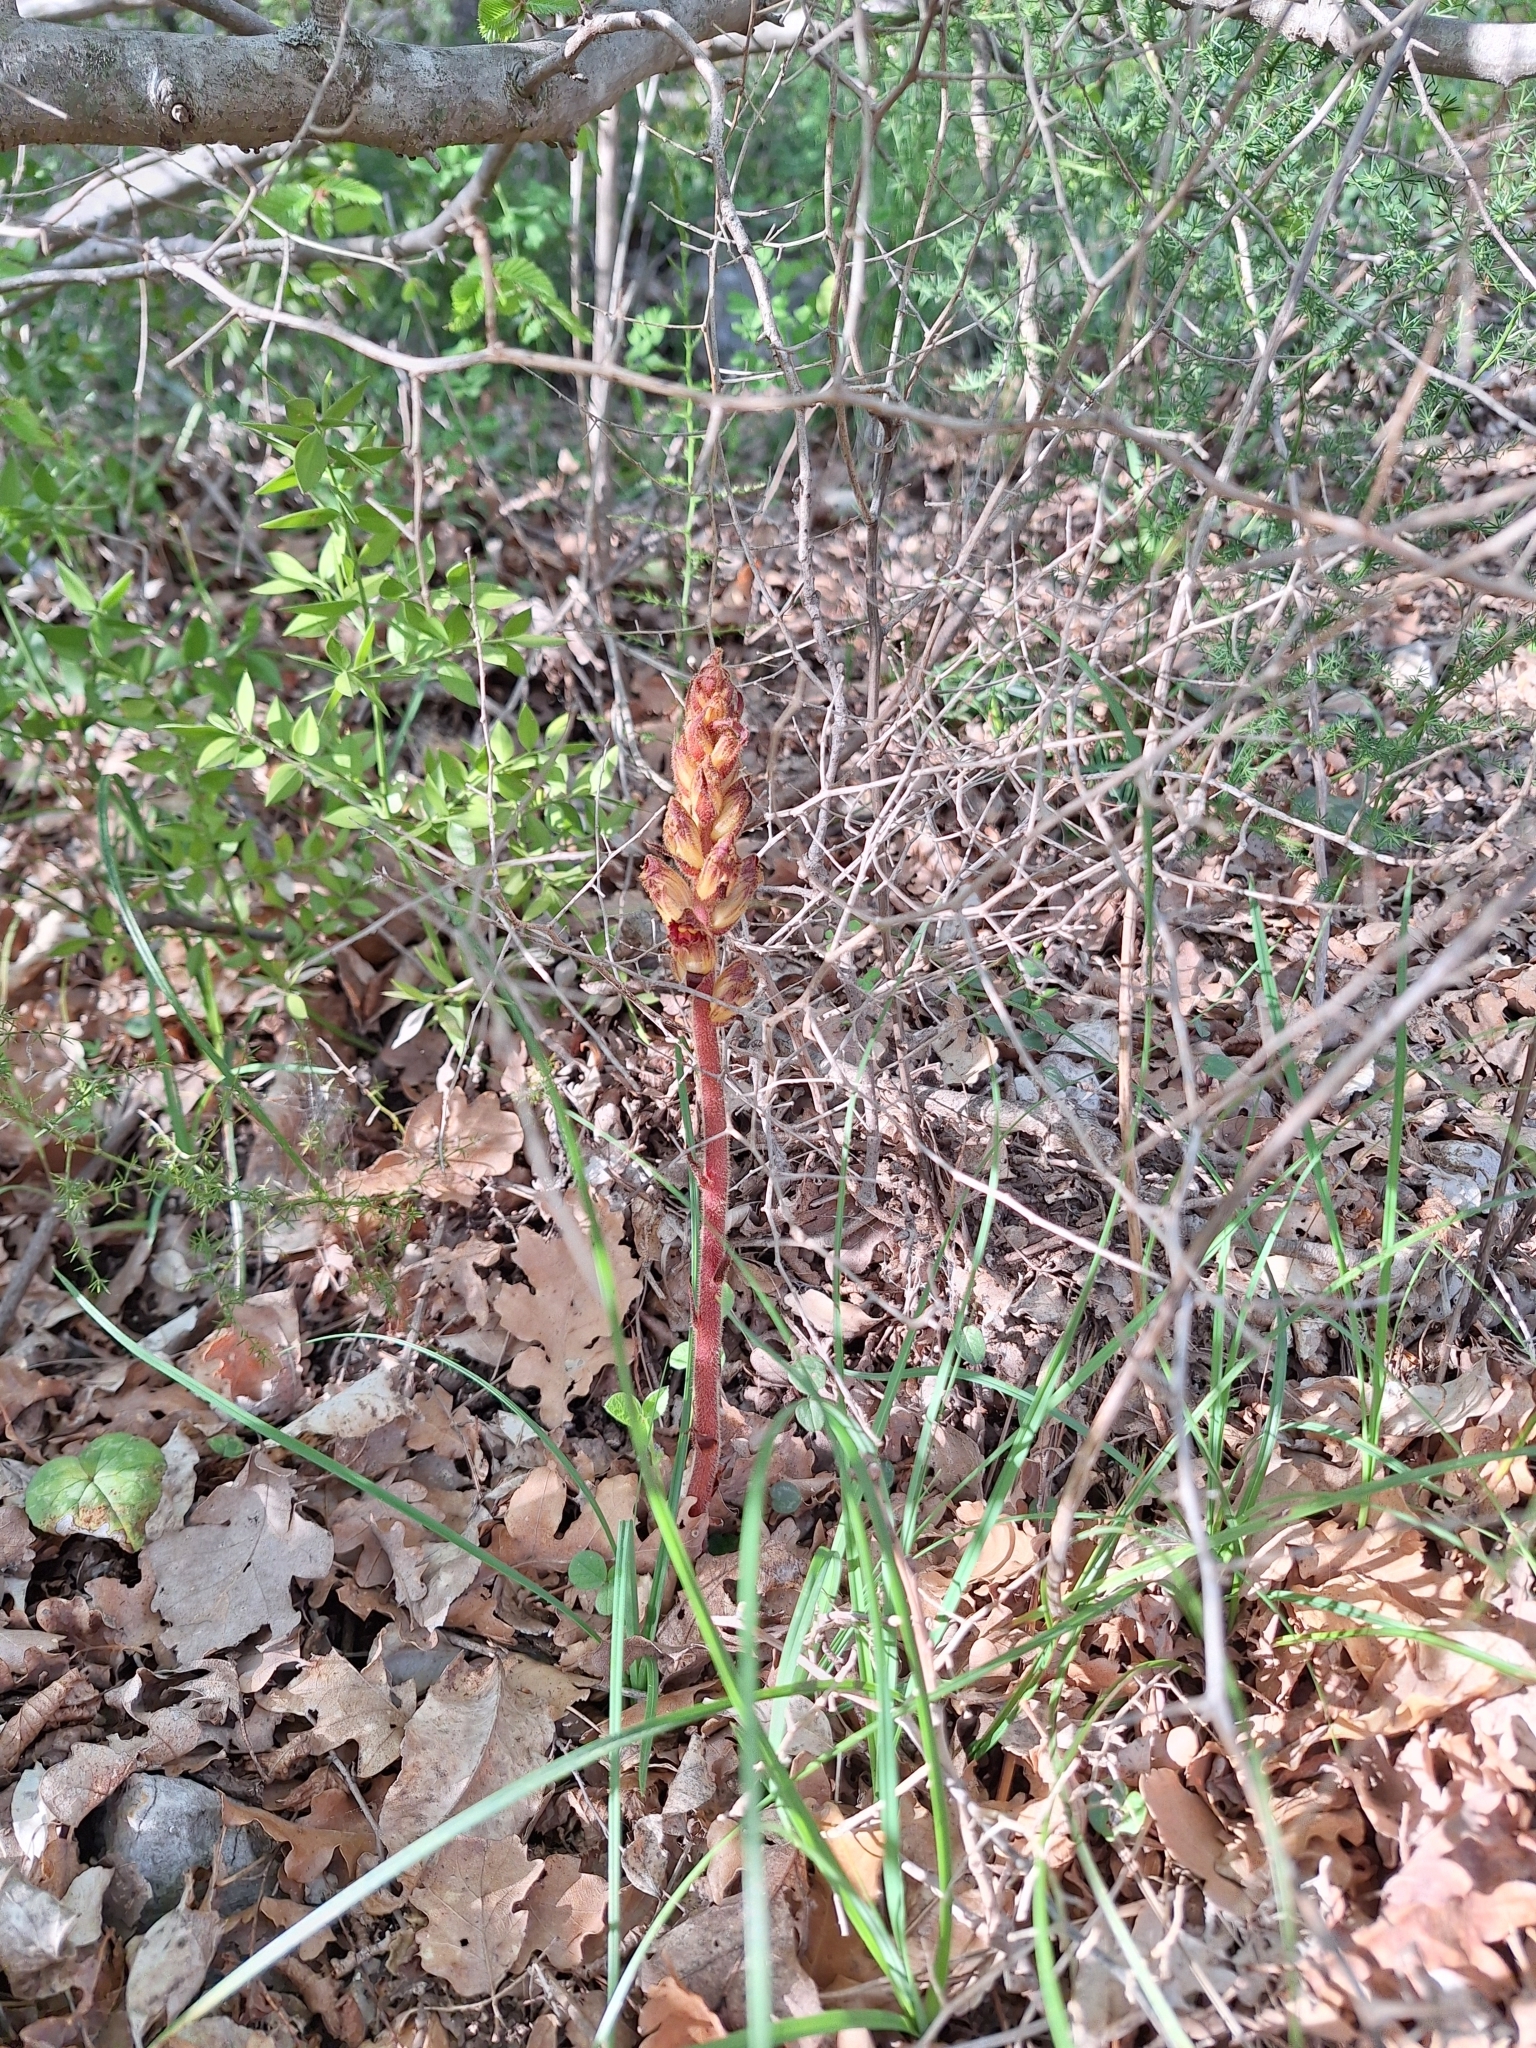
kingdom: Plantae
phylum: Tracheophyta
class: Magnoliopsida
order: Lamiales
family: Orobanchaceae
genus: Orobanche
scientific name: Orobanche gracilis
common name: Slender broomrape
